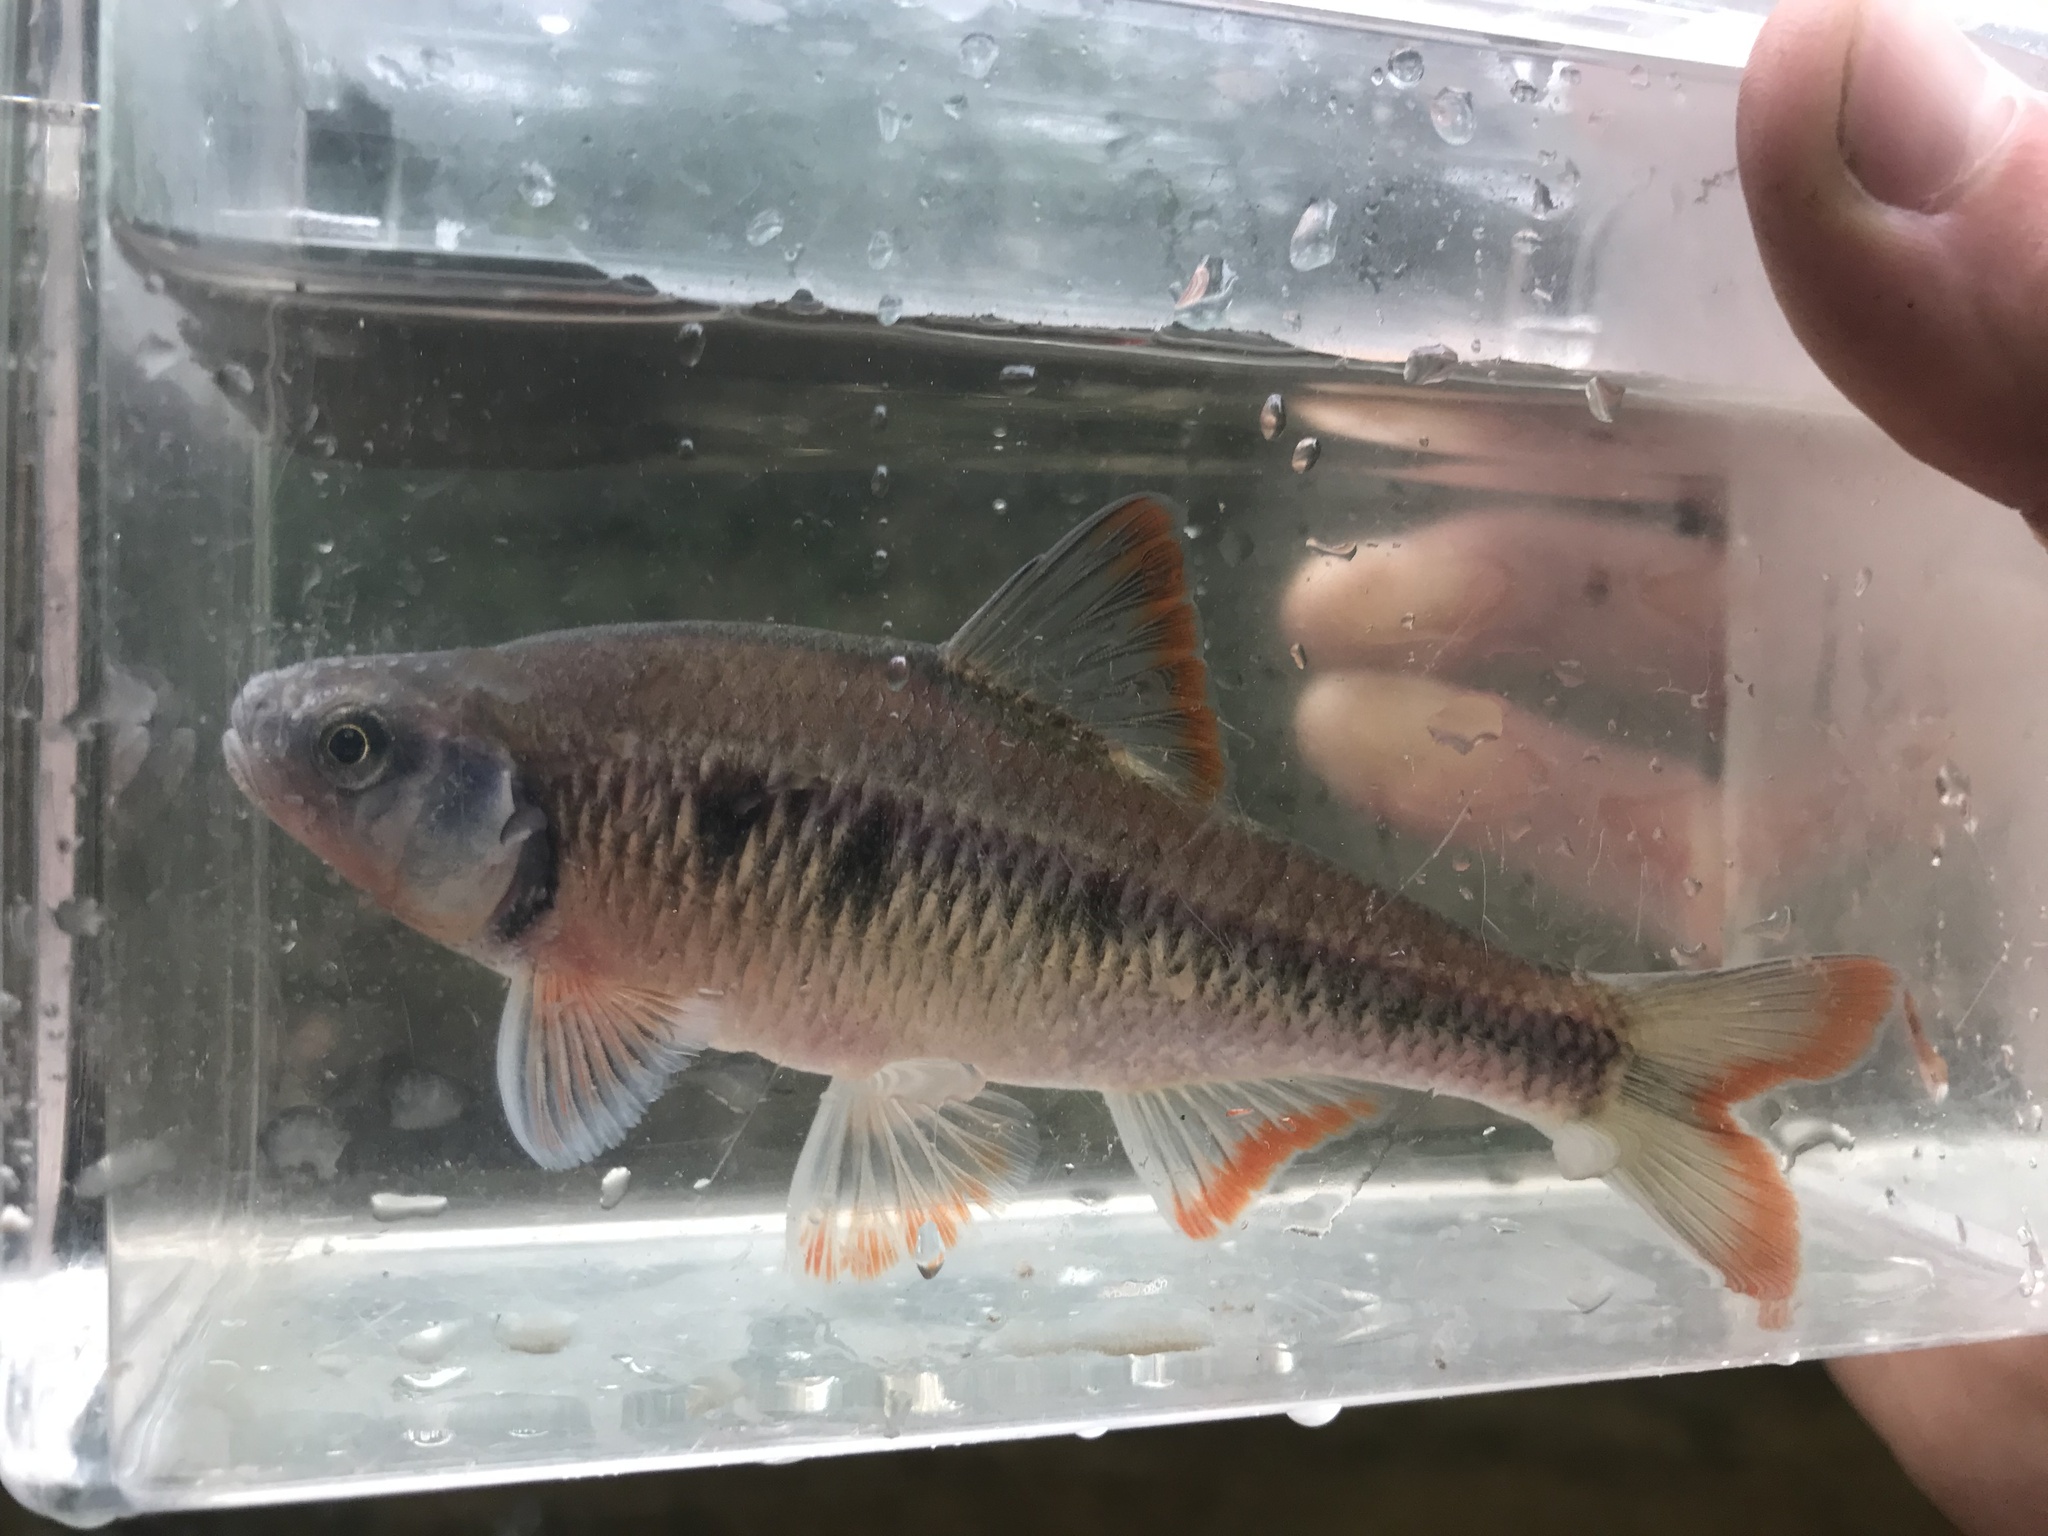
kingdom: Animalia
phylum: Chordata
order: Cypriniformes
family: Cyprinidae
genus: Luxilus
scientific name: Luxilus albeolus
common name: White shiner
